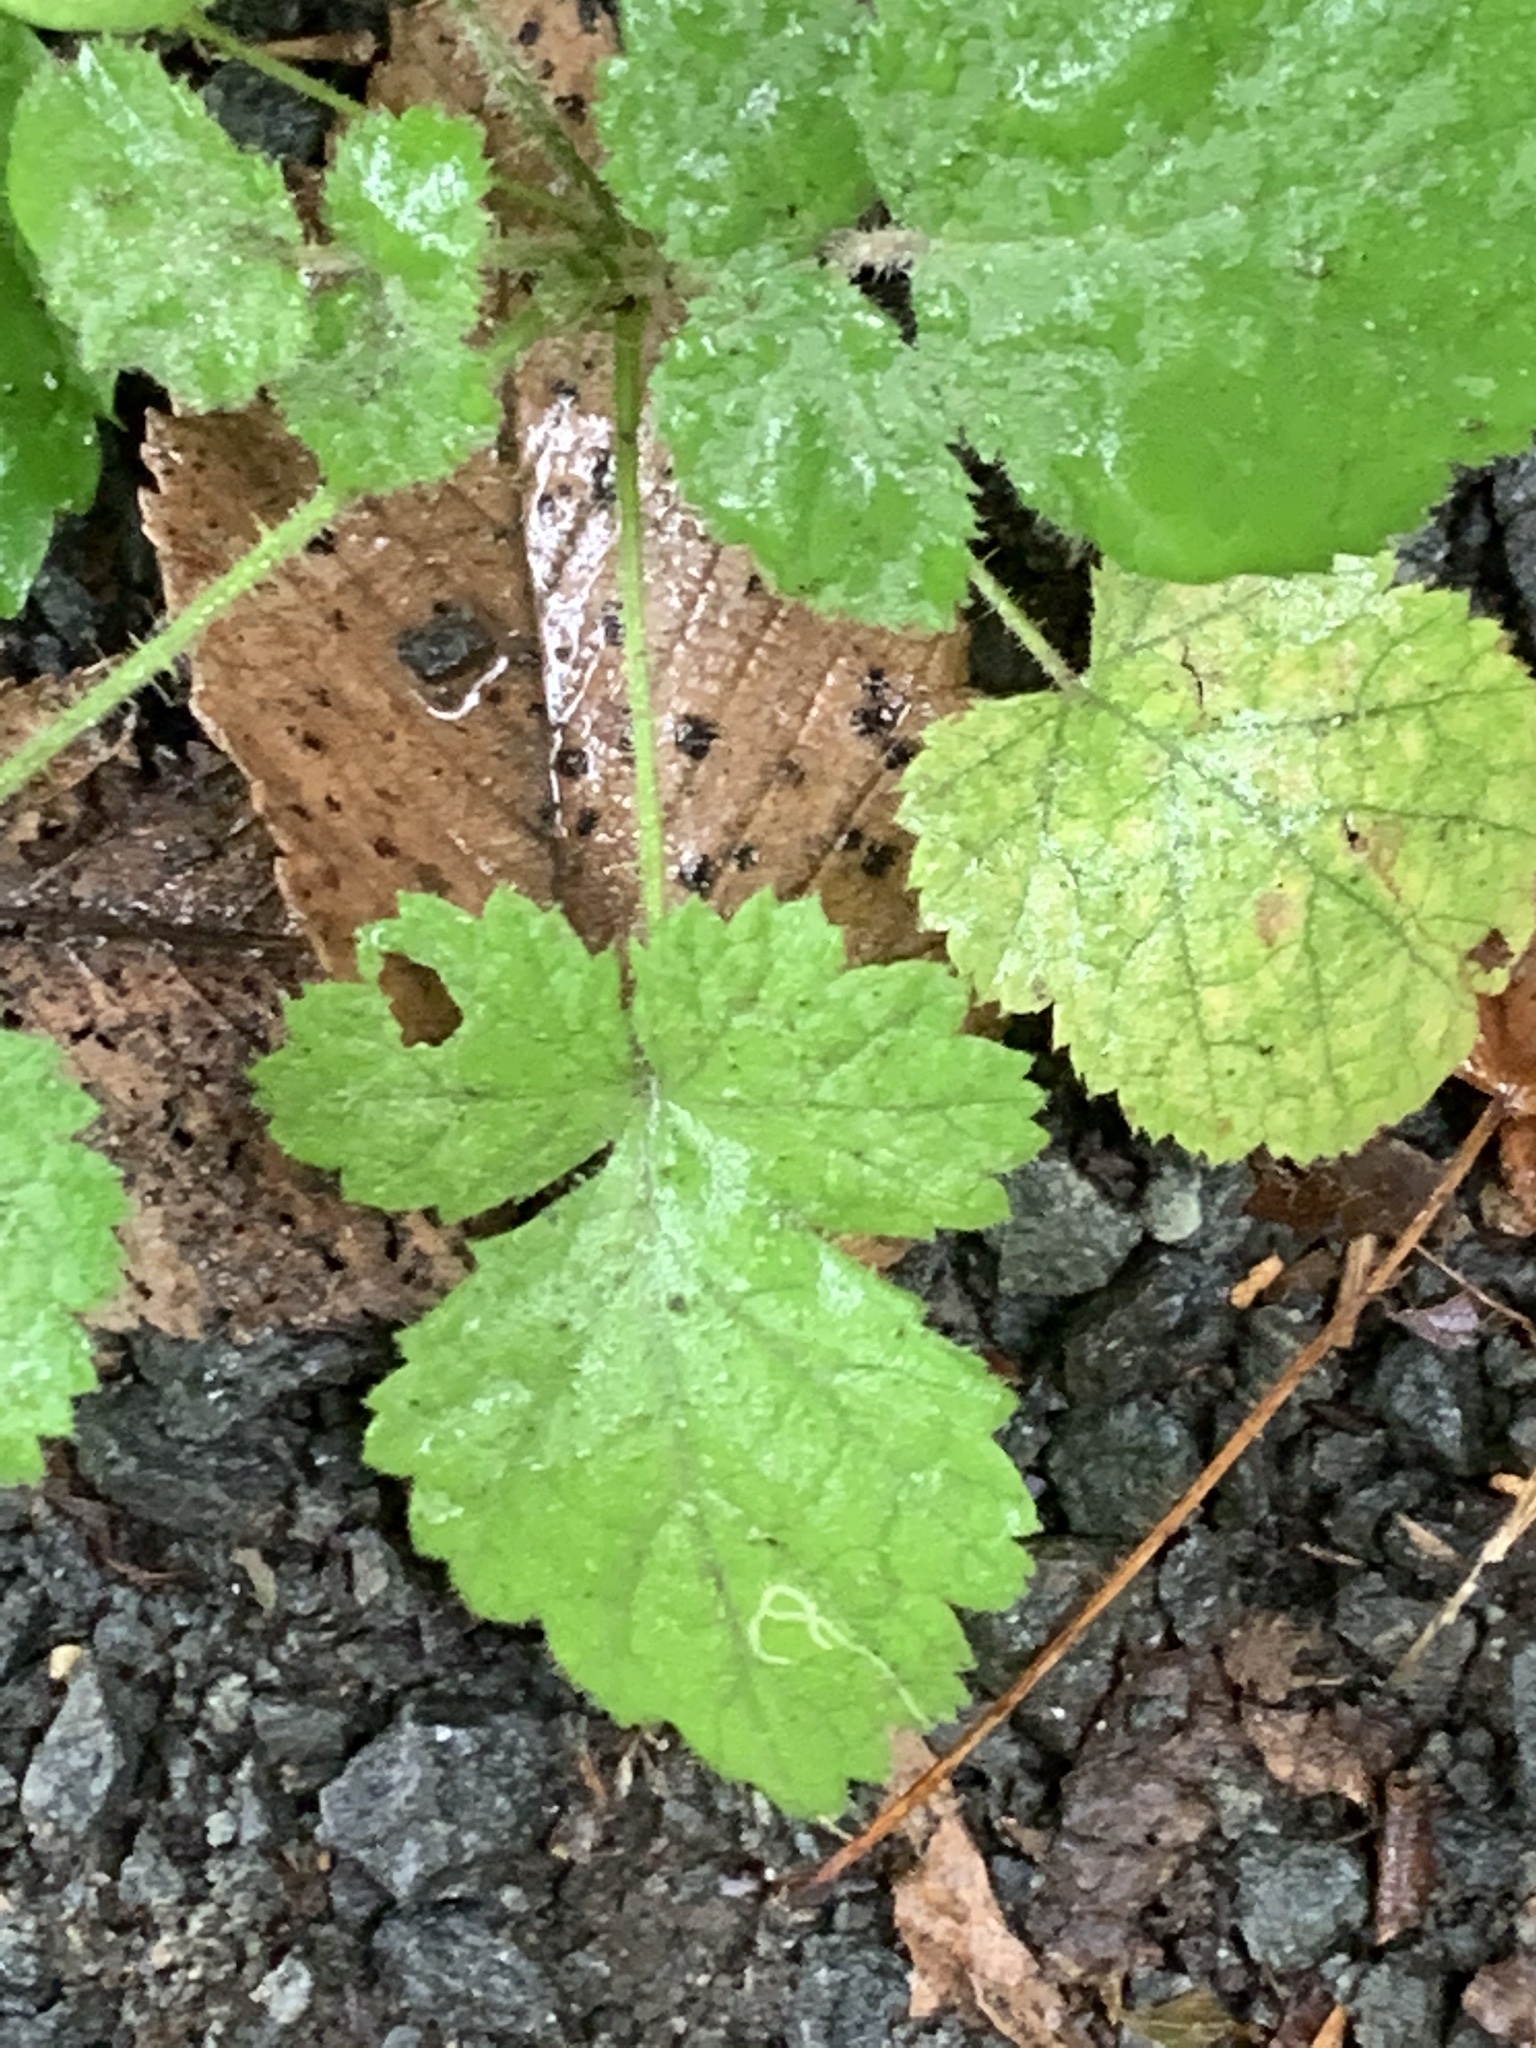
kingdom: Plantae
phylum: Tracheophyta
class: Magnoliopsida
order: Rosales
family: Rosaceae
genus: Rubus
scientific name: Rubus phoenicolasius
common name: Japanese wineberry
